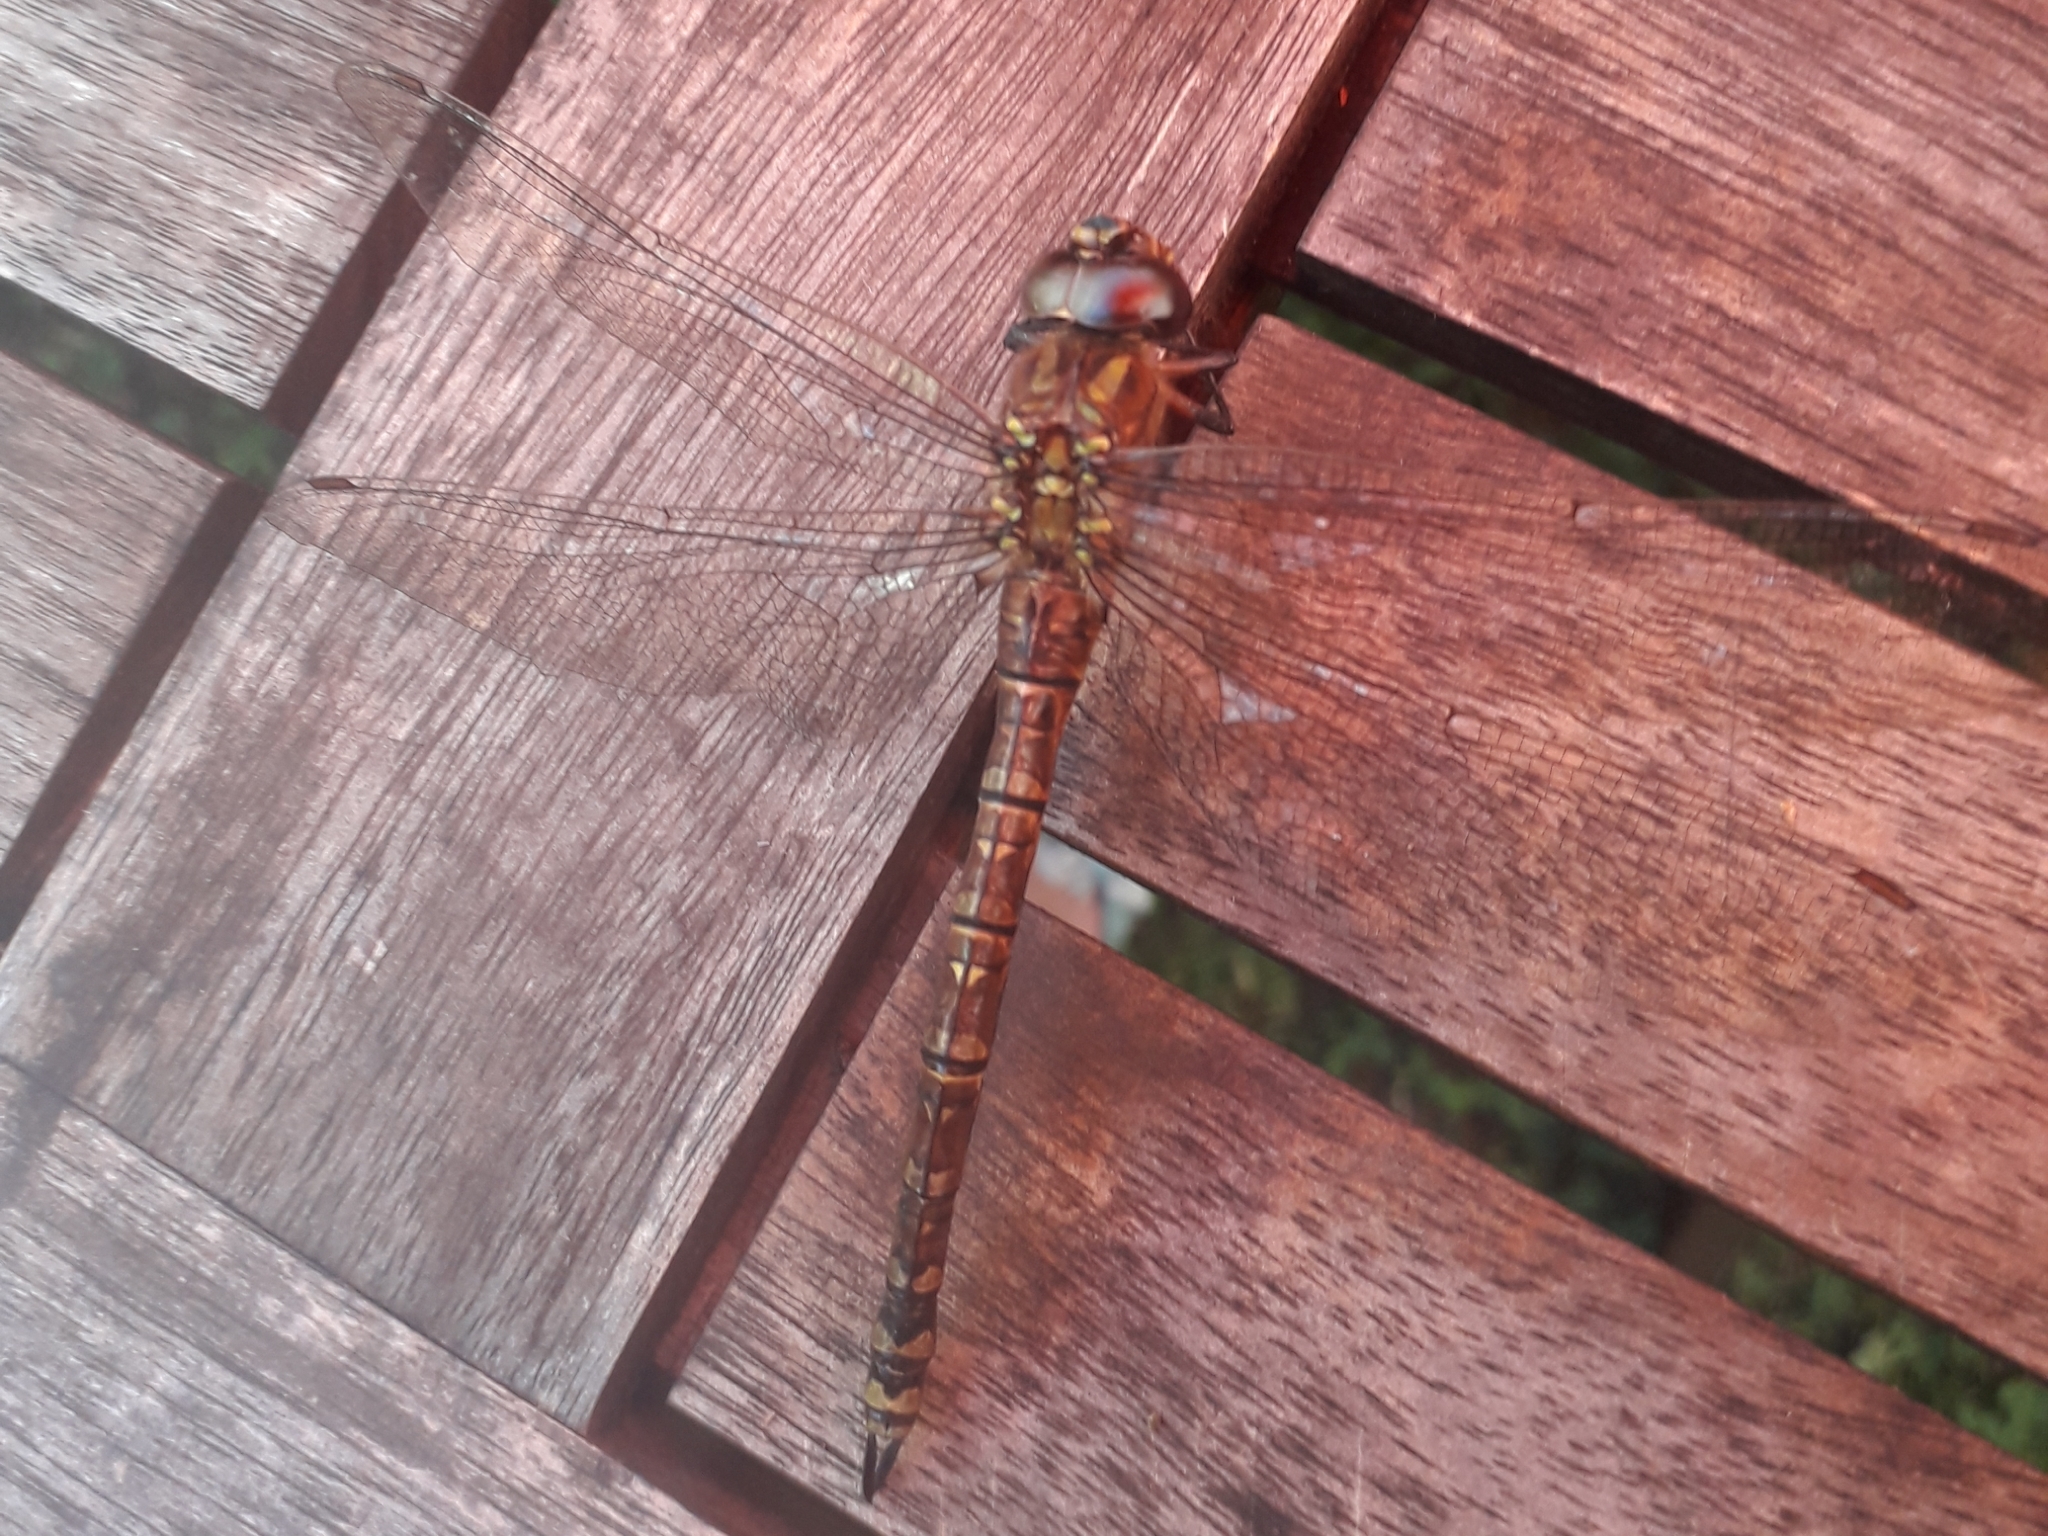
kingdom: Animalia
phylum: Arthropoda
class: Insecta
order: Odonata
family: Aeshnidae
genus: Aeshna
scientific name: Aeshna cyanea
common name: Southern hawker
